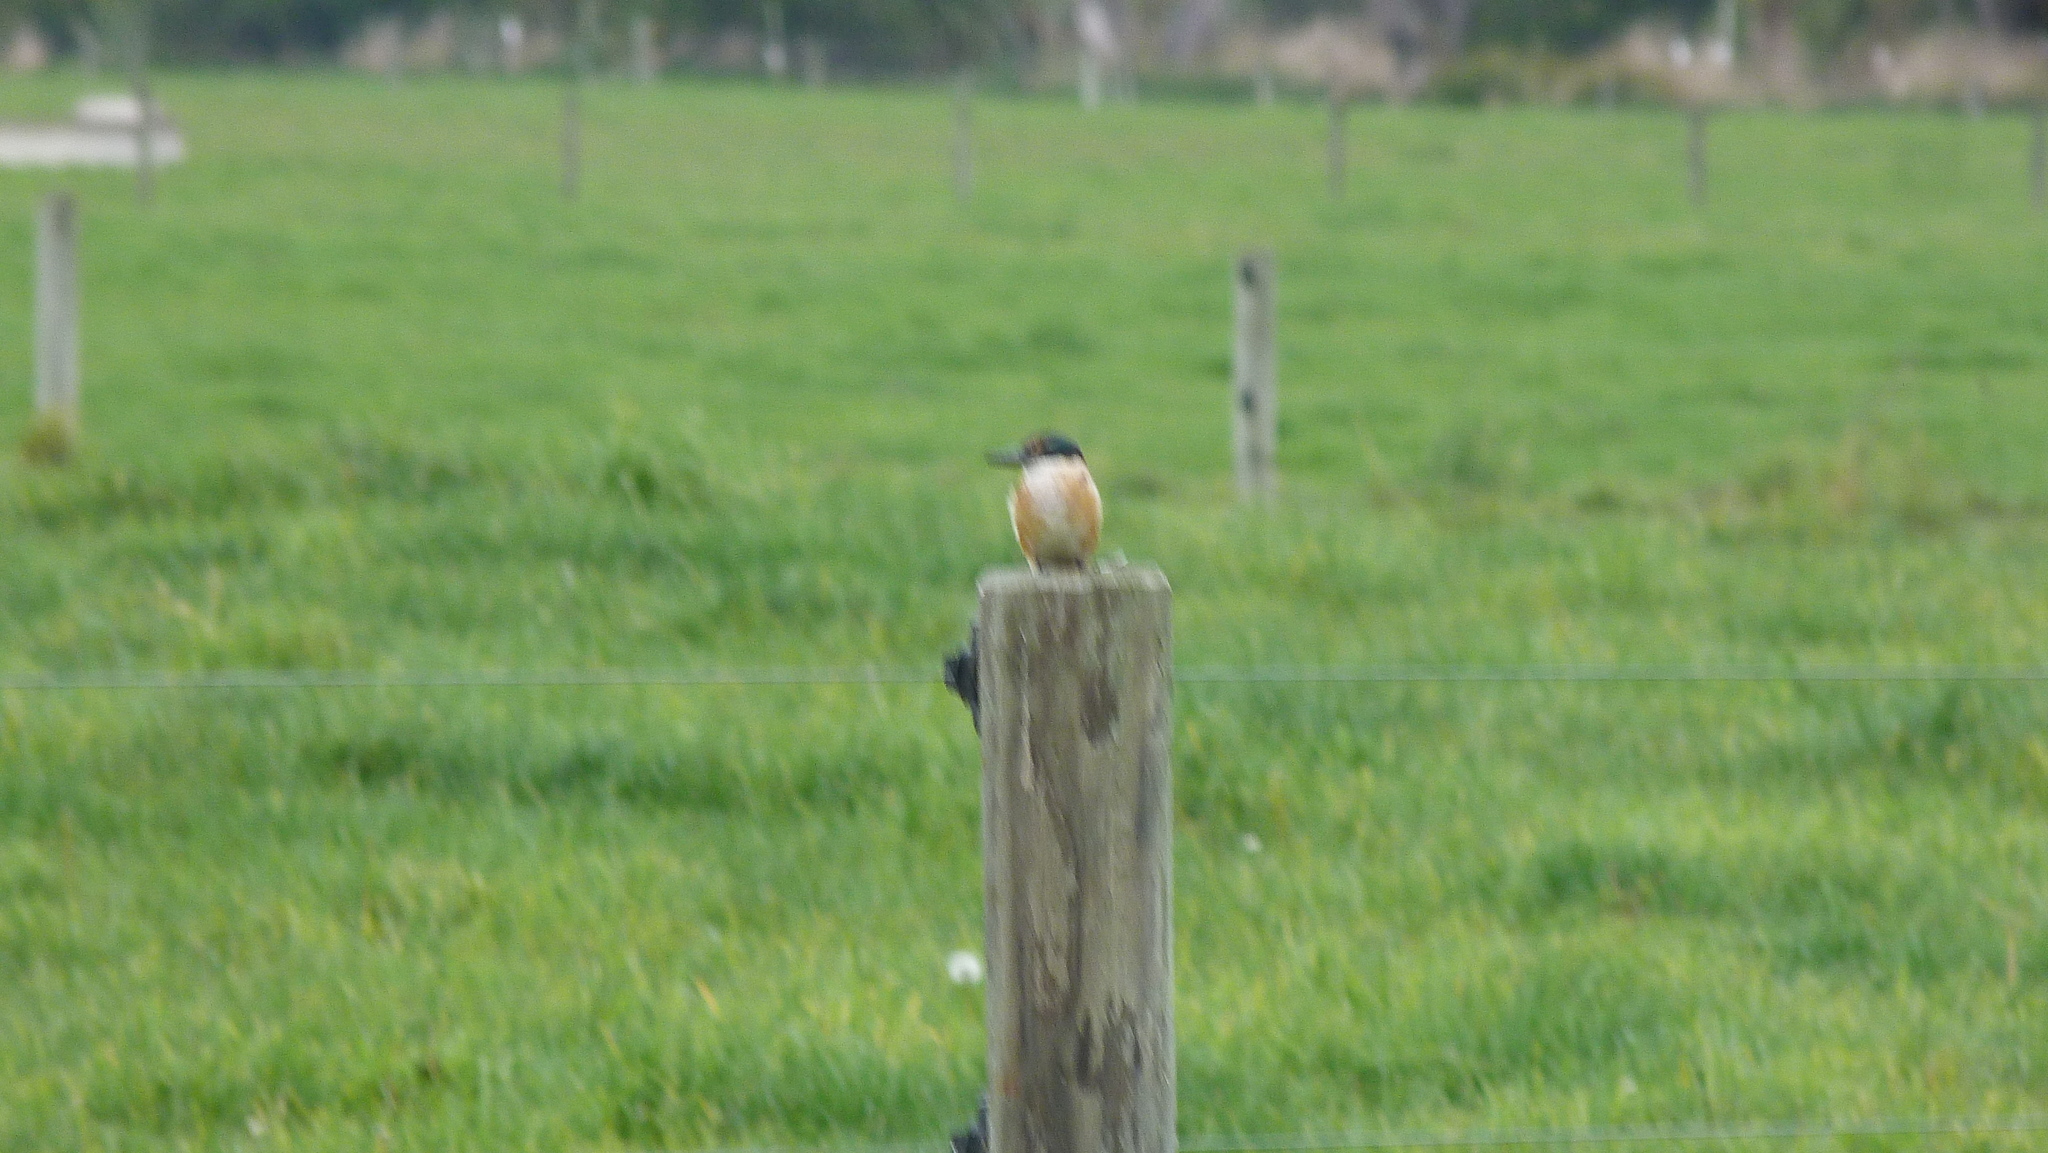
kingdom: Animalia
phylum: Chordata
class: Aves
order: Coraciiformes
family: Alcedinidae
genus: Todiramphus
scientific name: Todiramphus sanctus
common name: Sacred kingfisher
